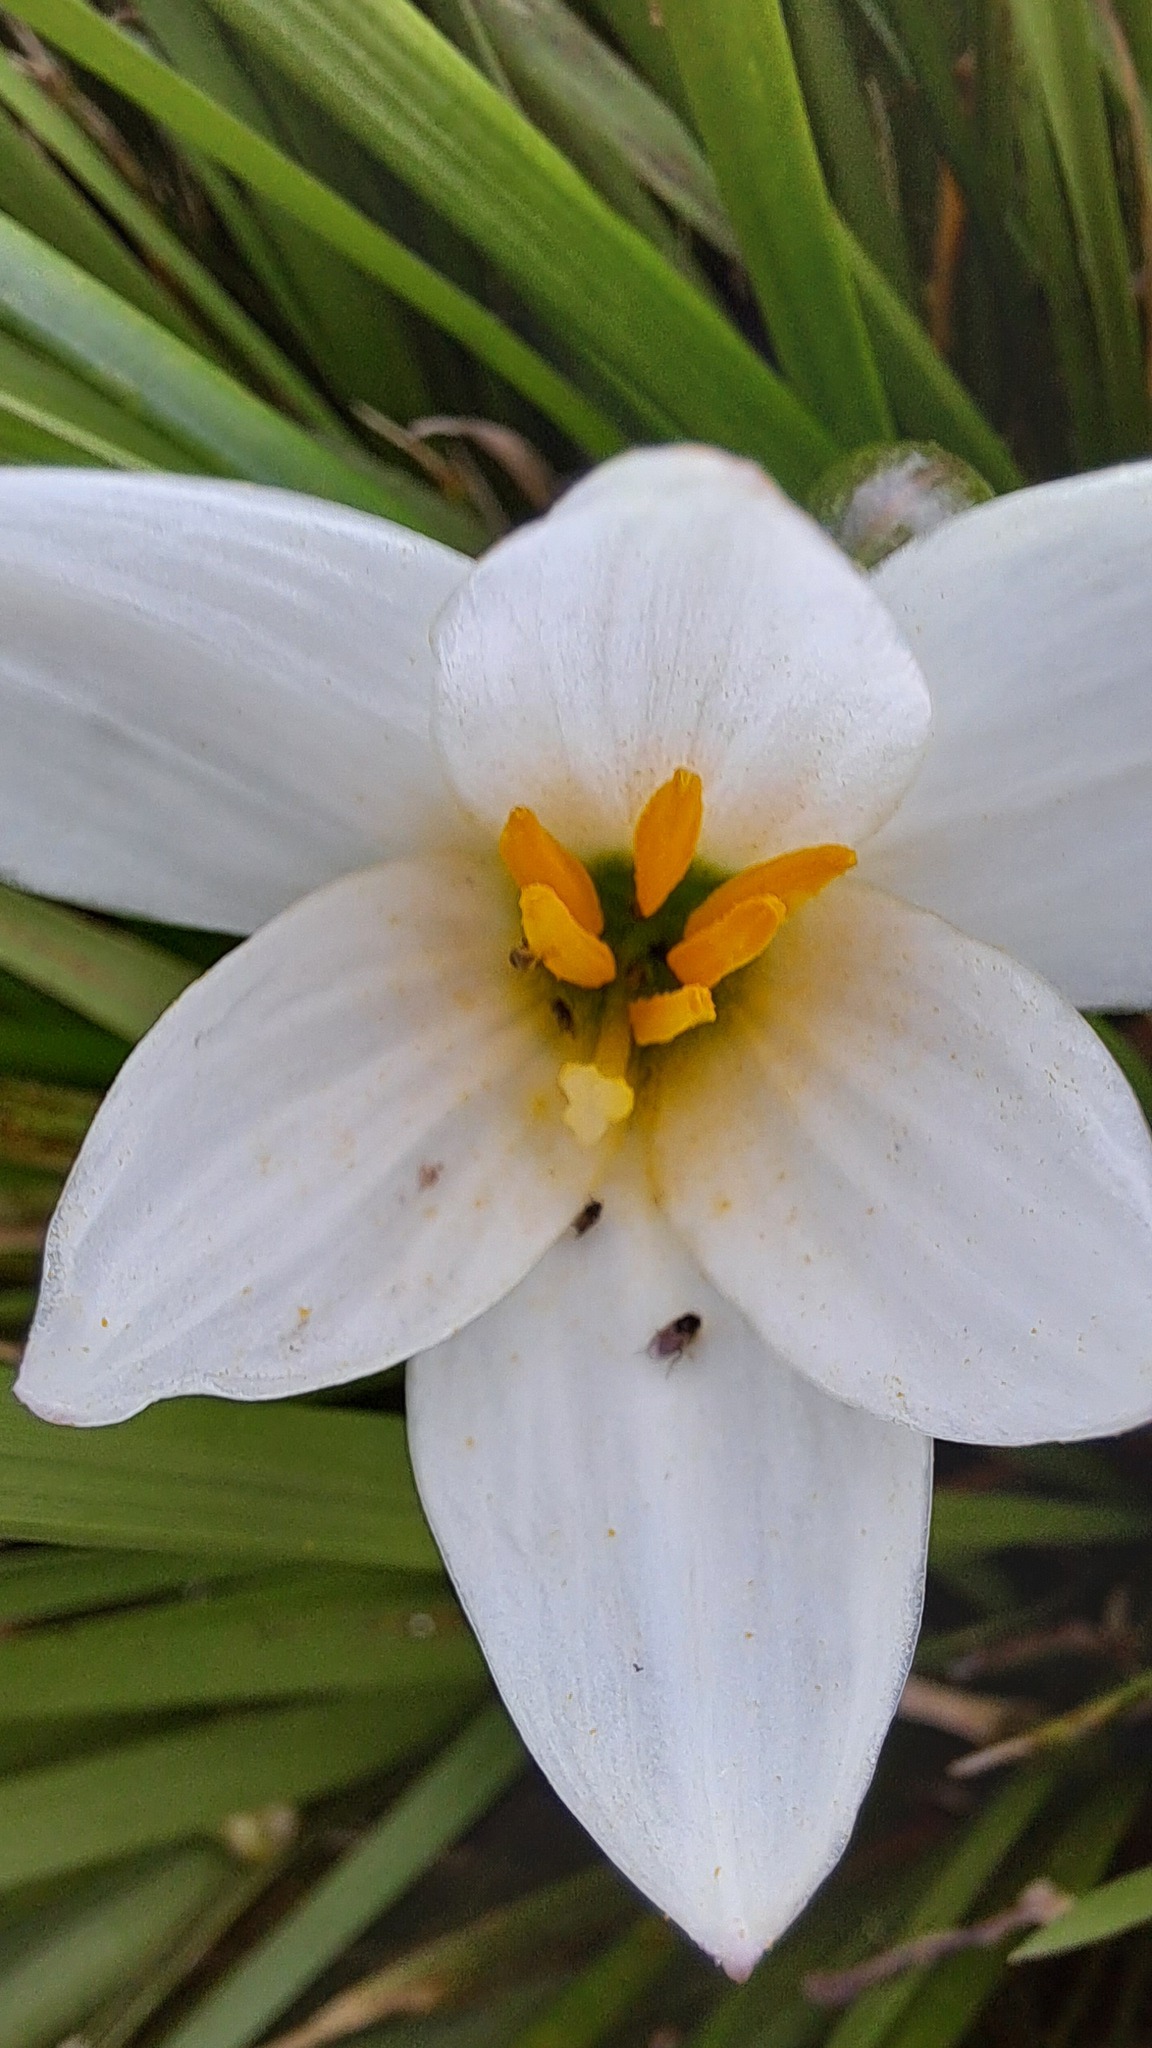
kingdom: Plantae
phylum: Tracheophyta
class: Liliopsida
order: Asparagales
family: Amaryllidaceae
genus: Zephyranthes
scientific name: Zephyranthes candida
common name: Autumn zephyrlily
